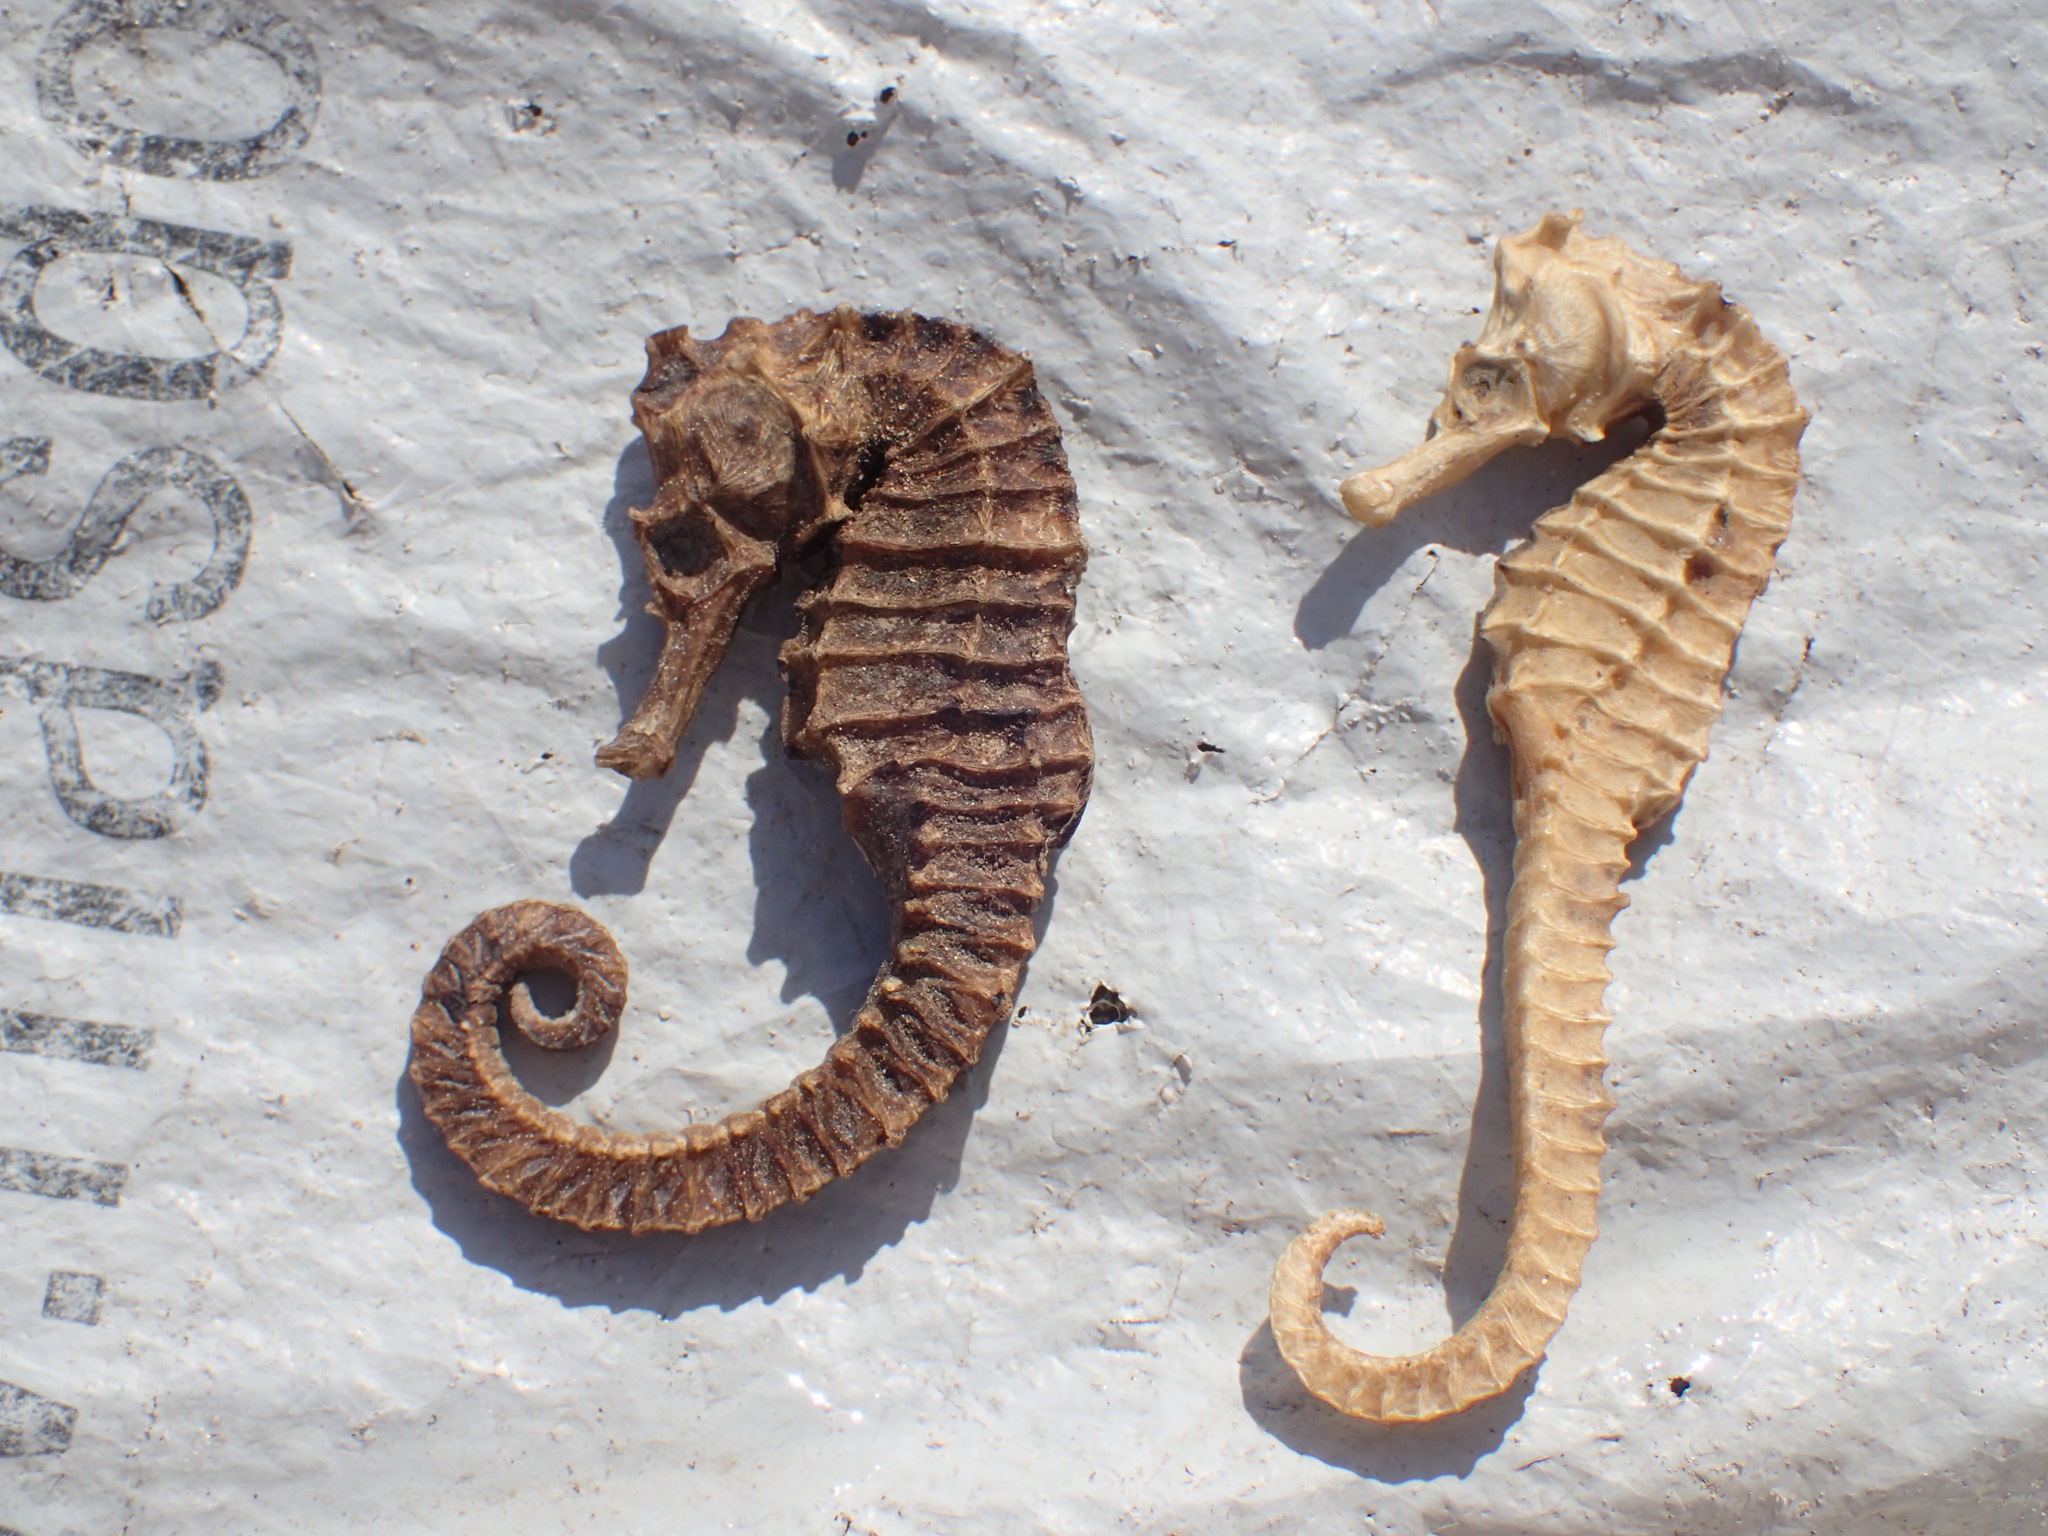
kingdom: Animalia
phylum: Chordata
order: Syngnathiformes
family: Syngnathidae
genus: Hippocampus
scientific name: Hippocampus algiricus
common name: West african seahorse
